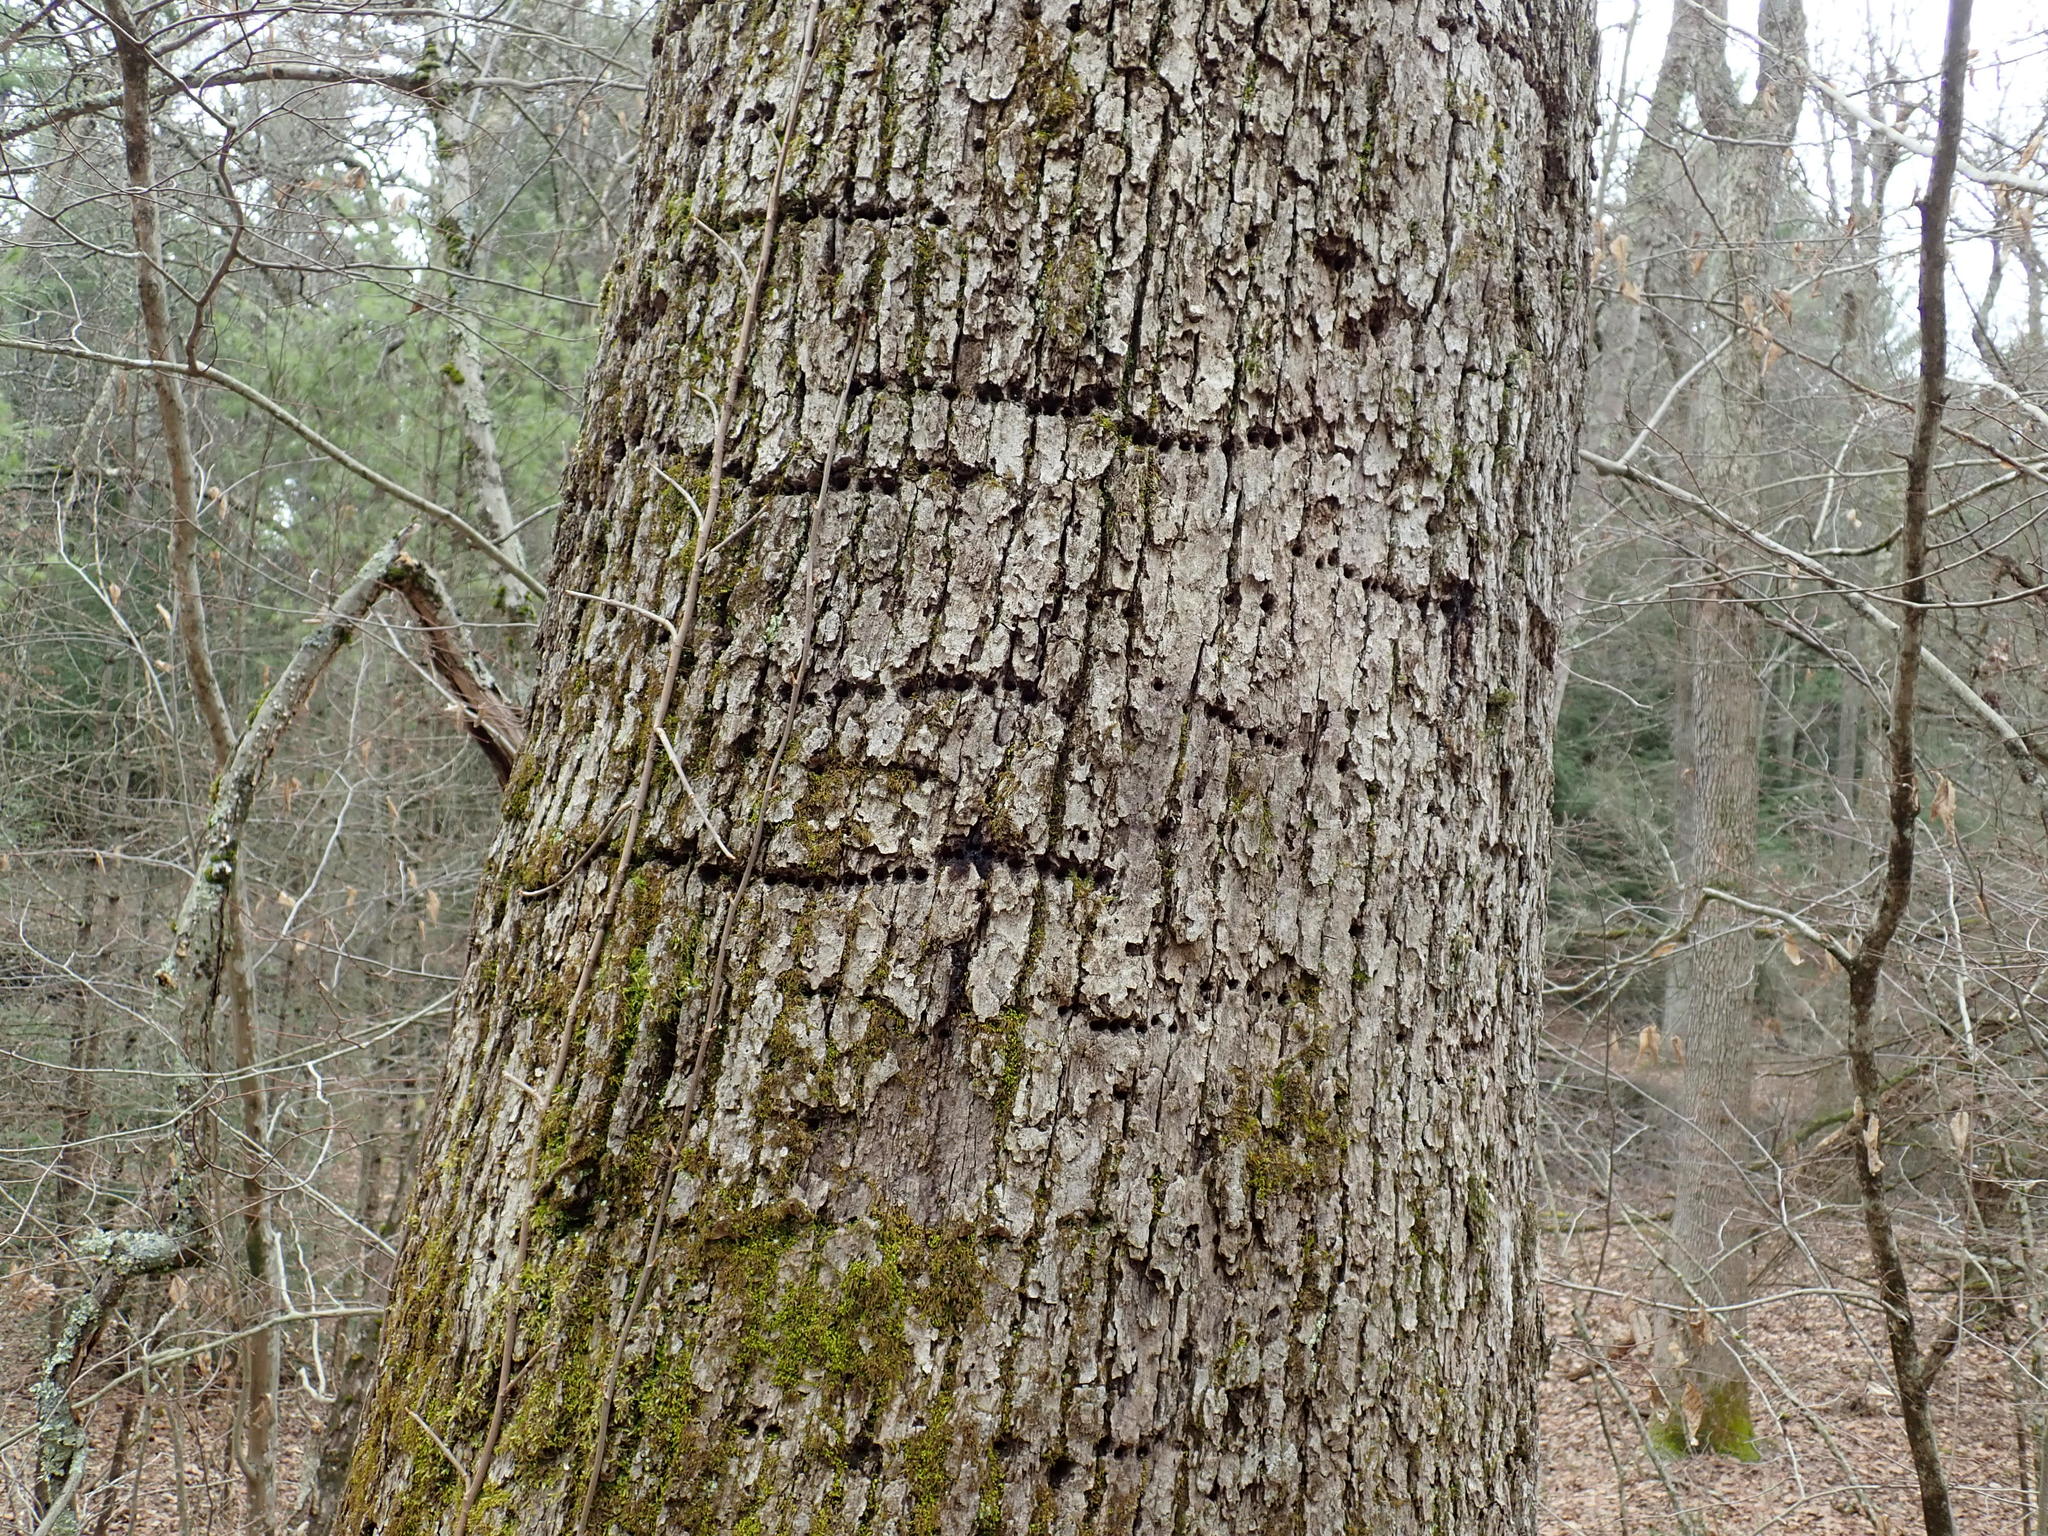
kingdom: Animalia
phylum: Chordata
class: Aves
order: Piciformes
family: Picidae
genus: Sphyrapicus
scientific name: Sphyrapicus varius
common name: Yellow-bellied sapsucker
